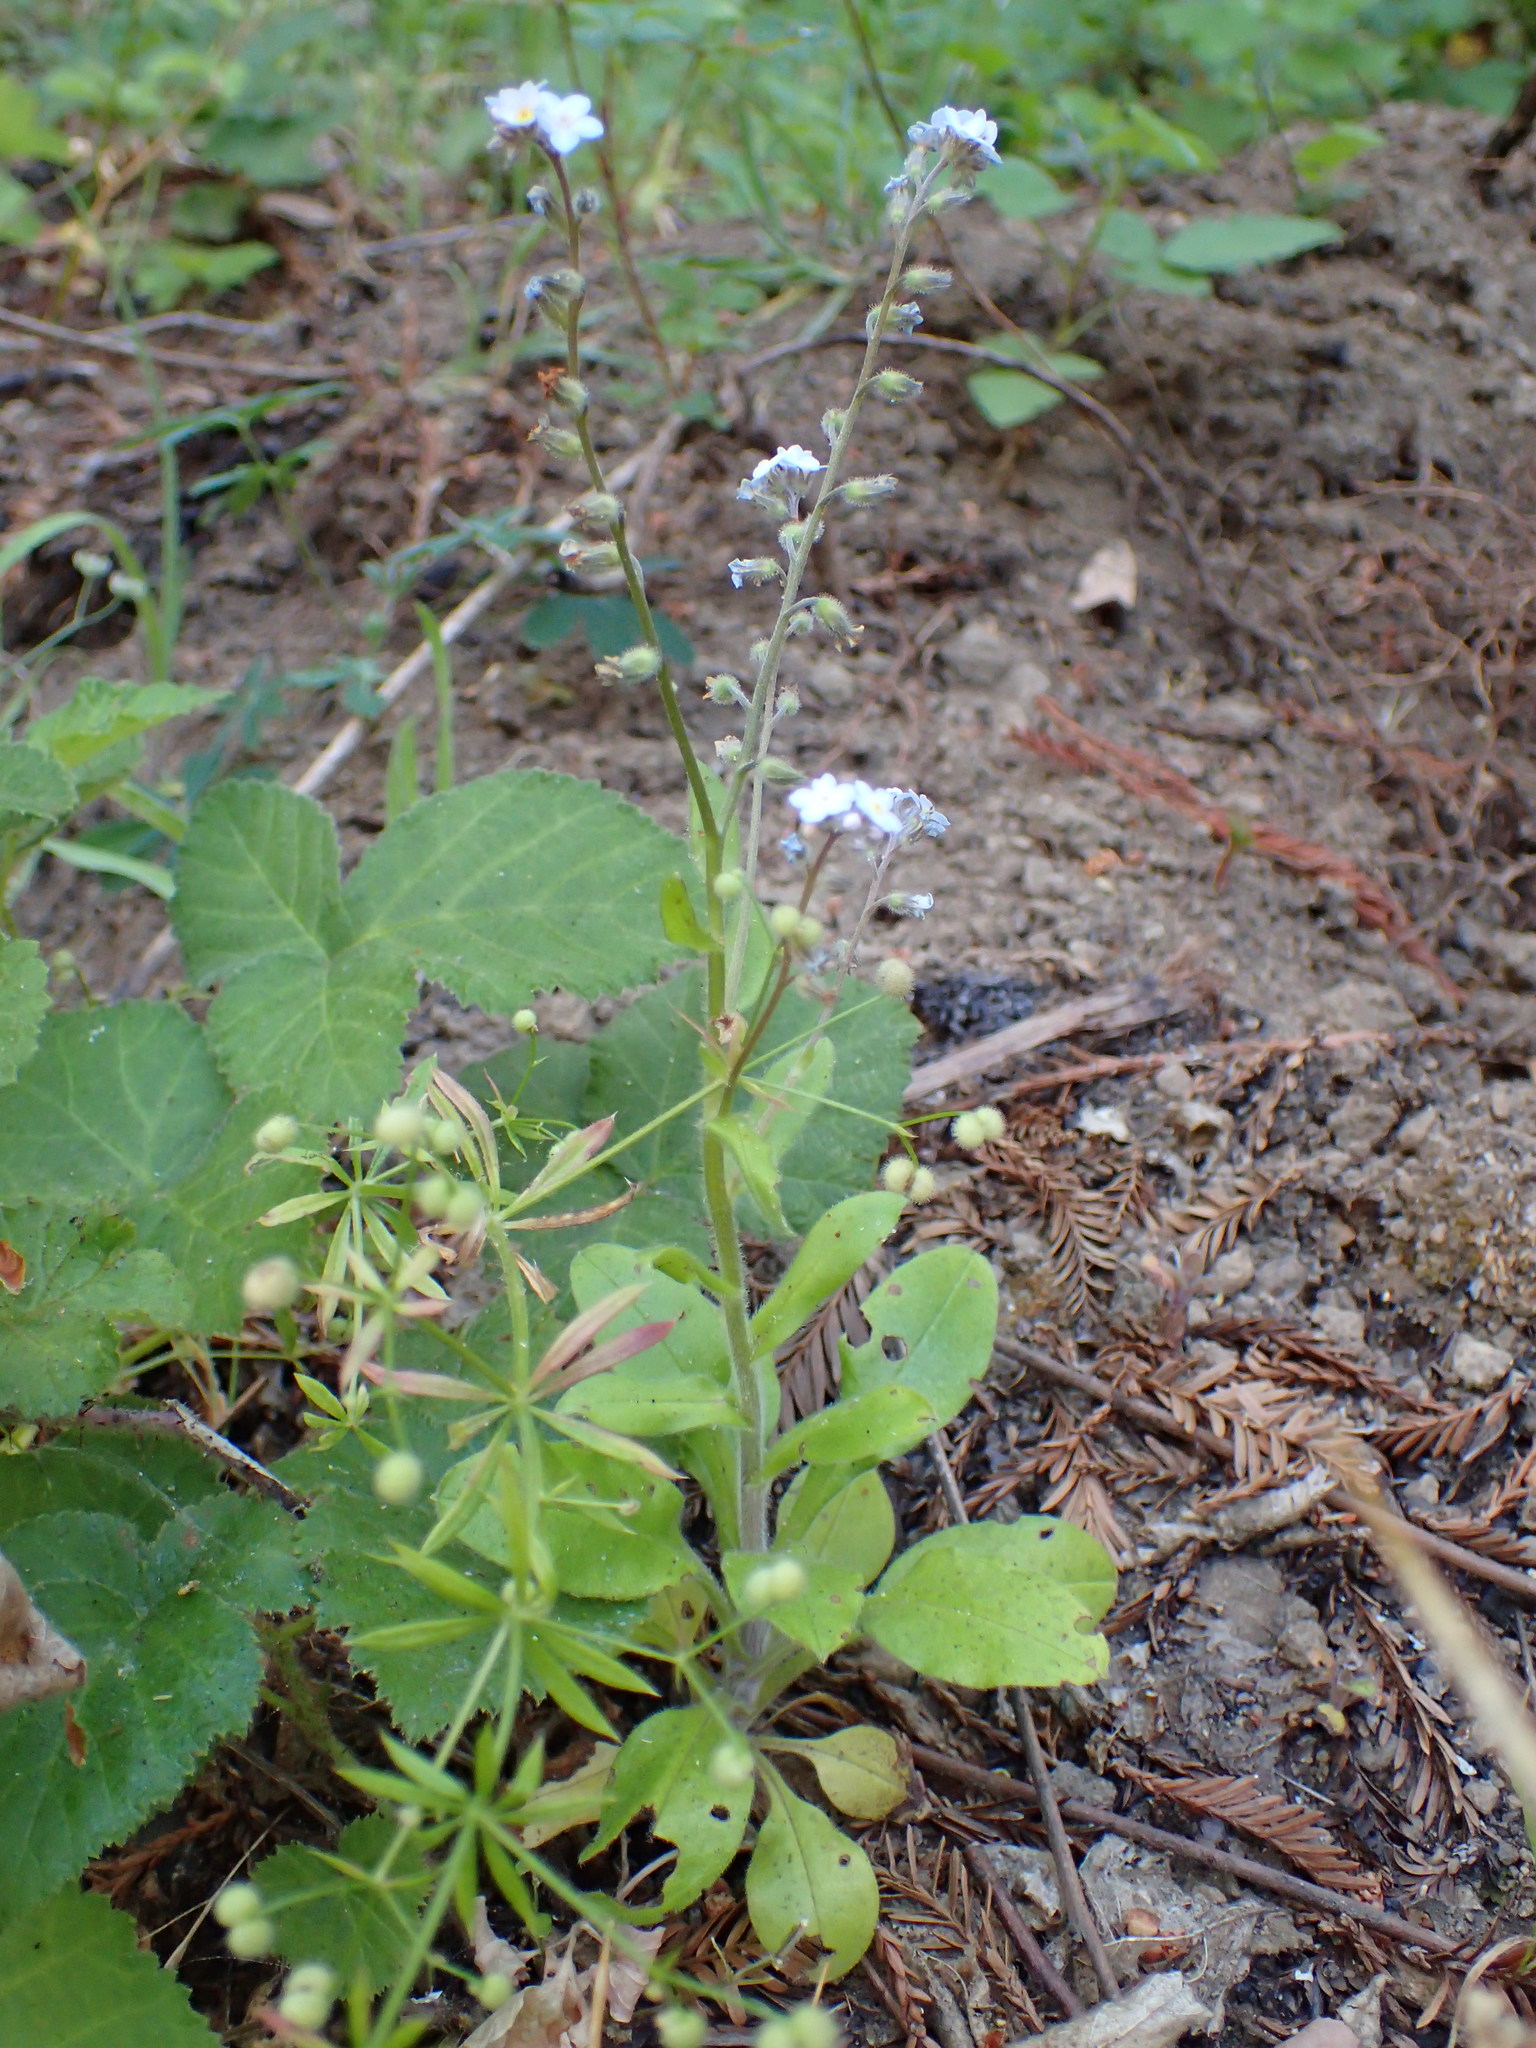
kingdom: Plantae
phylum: Tracheophyta
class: Magnoliopsida
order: Boraginales
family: Boraginaceae
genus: Myosotis
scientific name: Myosotis latifolia
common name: Broadleaf forget-me-not
